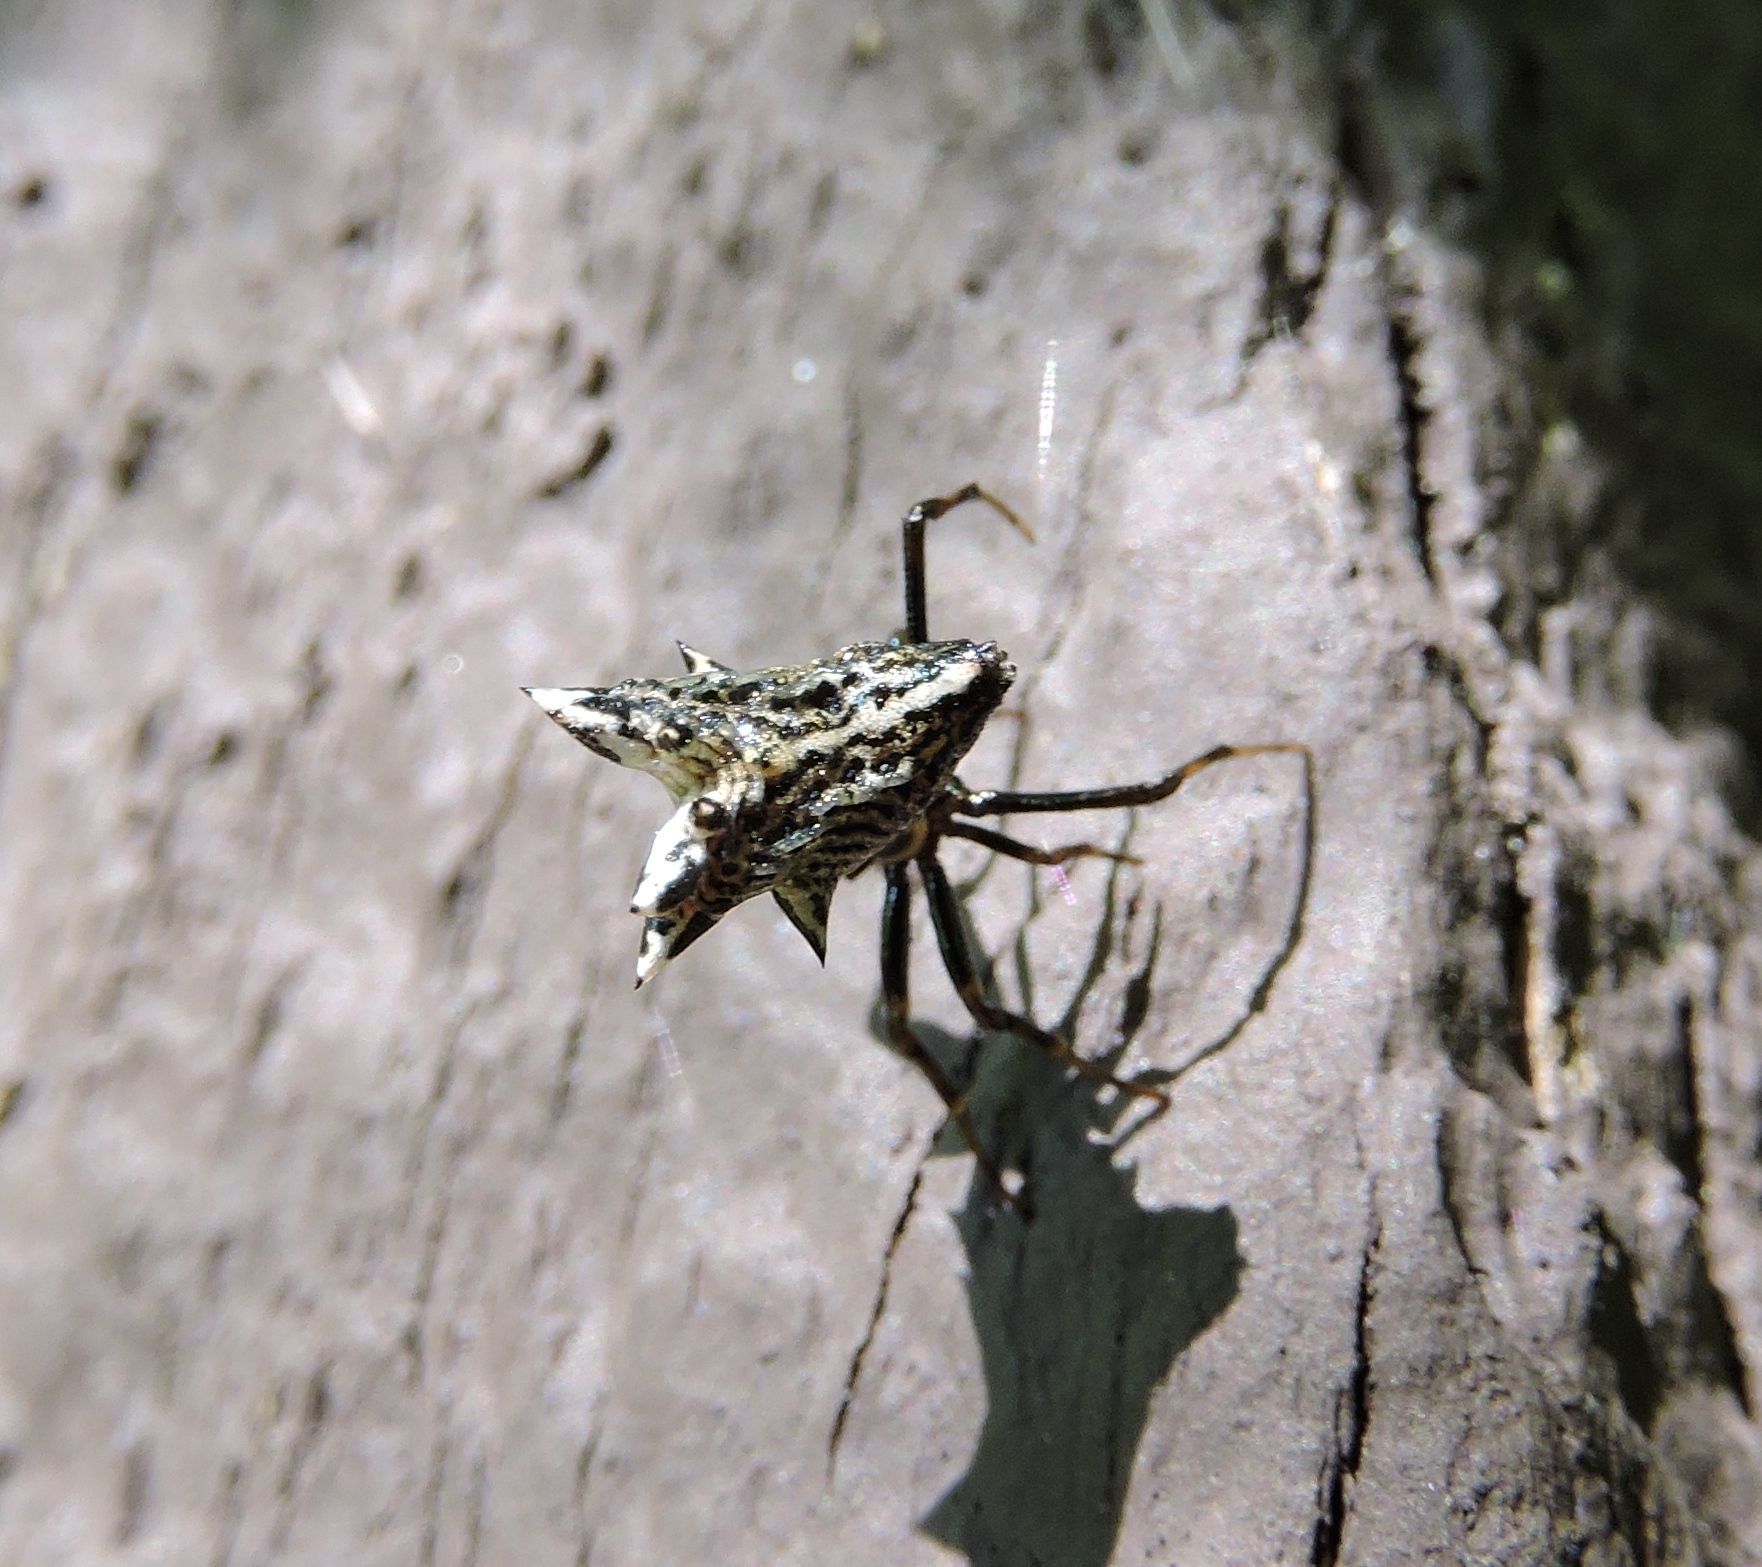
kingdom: Animalia
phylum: Arthropoda
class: Arachnida
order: Araneae
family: Araneidae
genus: Micrathena
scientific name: Micrathena gracilis
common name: Orb weavers
